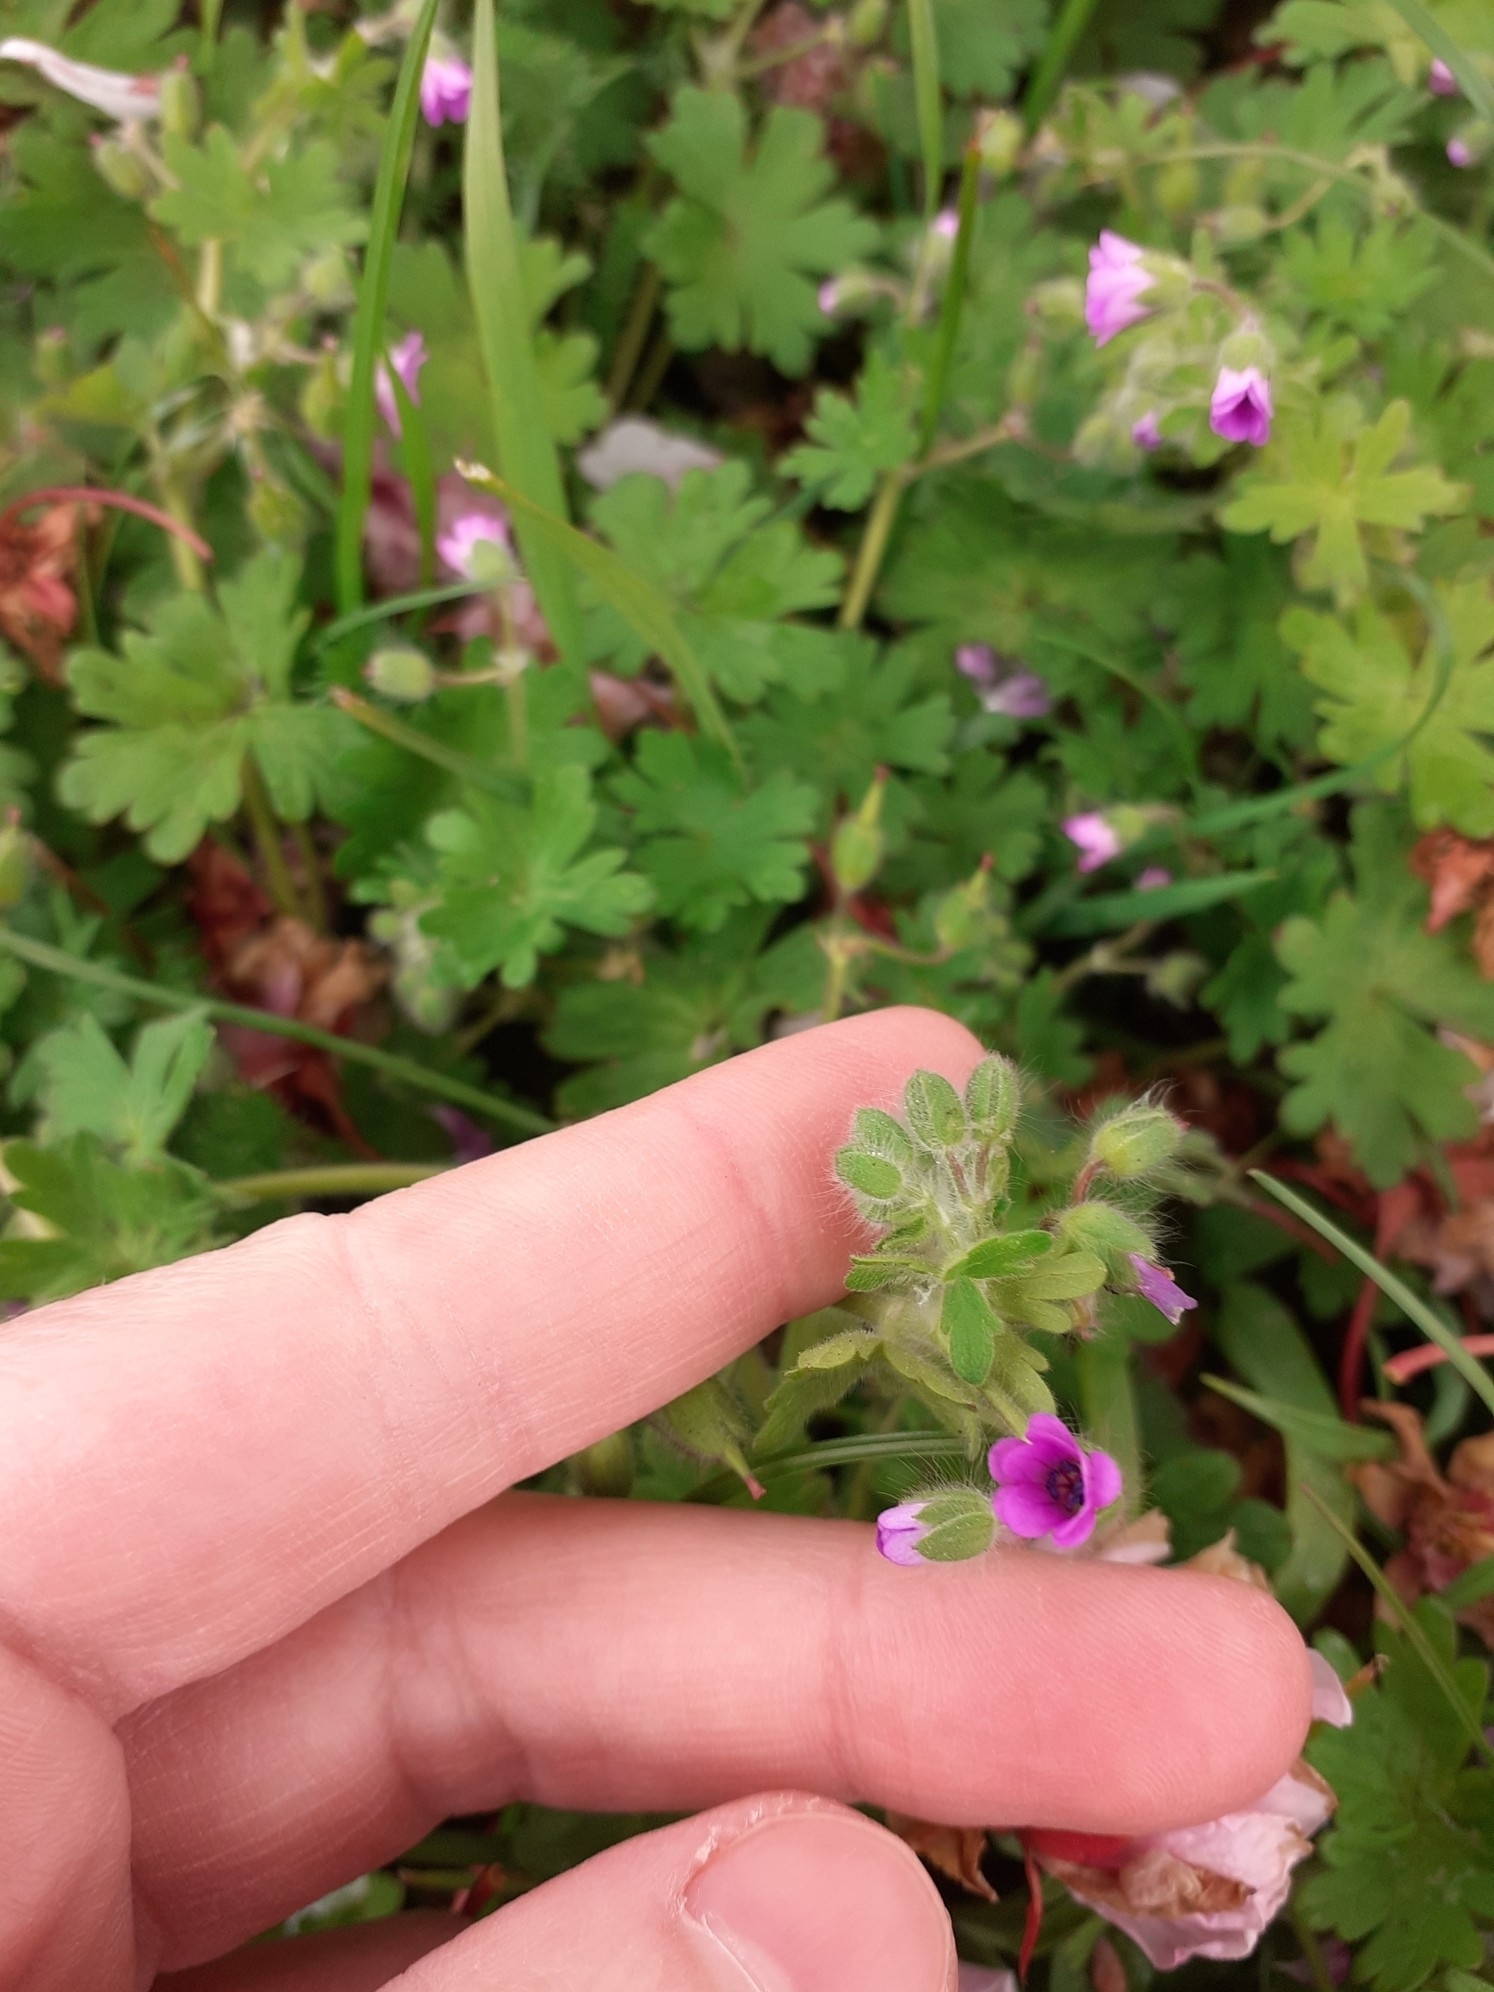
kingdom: Plantae
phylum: Tracheophyta
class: Magnoliopsida
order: Geraniales
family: Geraniaceae
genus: Geranium
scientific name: Geranium molle
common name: Dove's-foot crane's-bill
